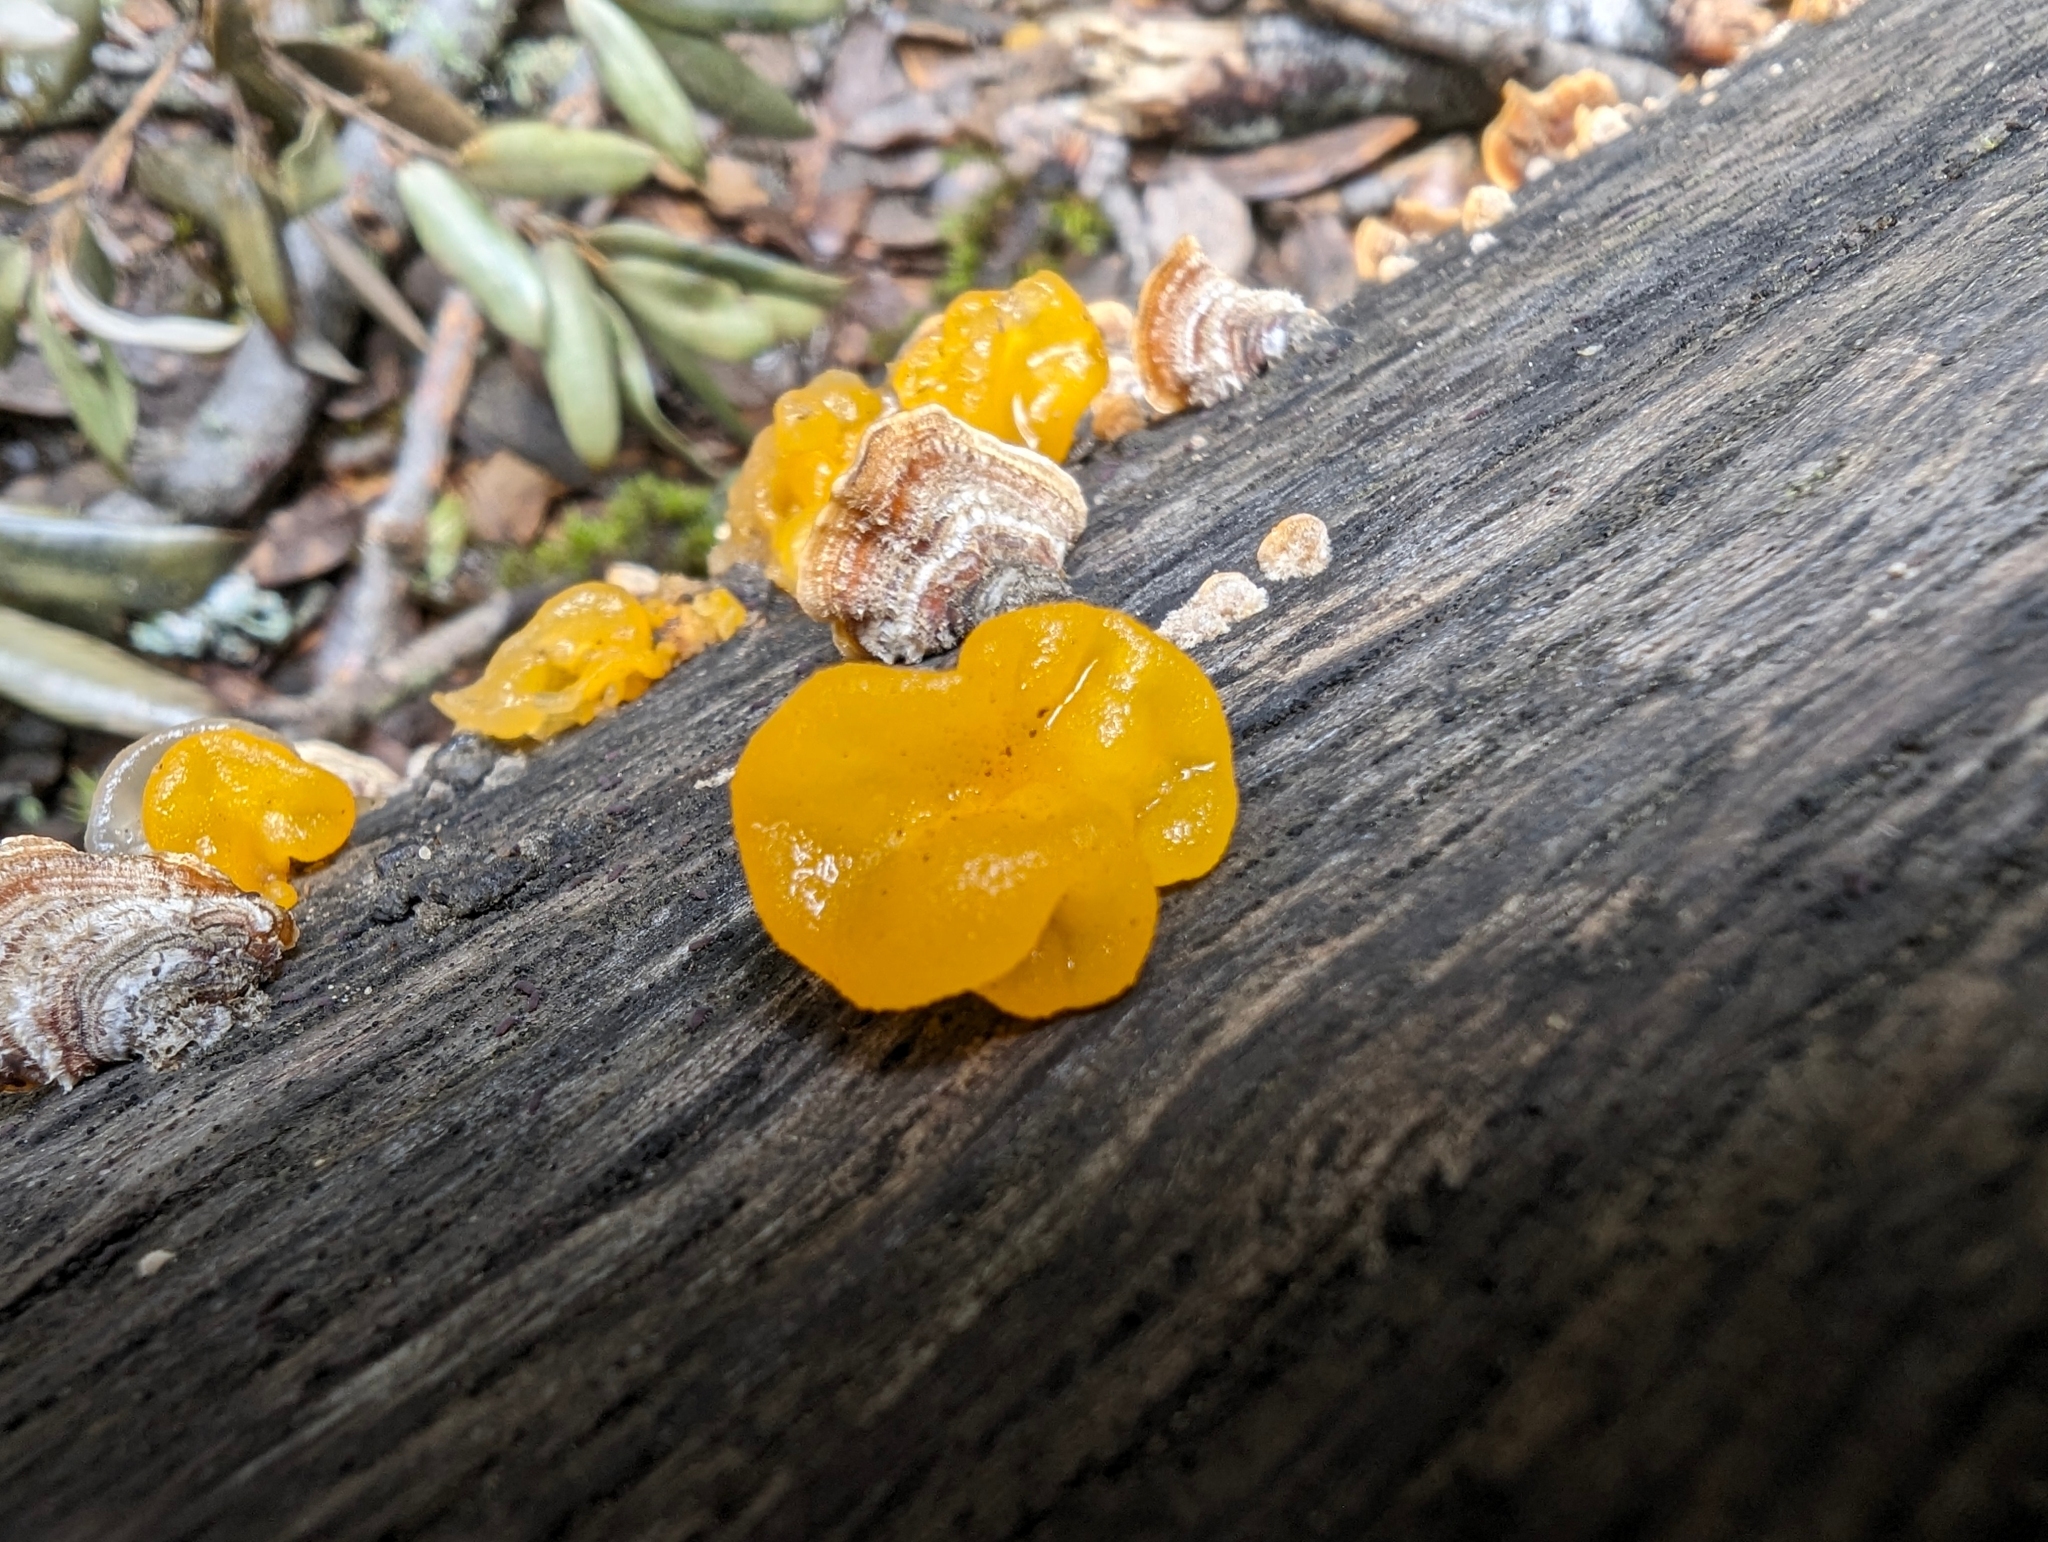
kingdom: Fungi
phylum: Basidiomycota
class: Tremellomycetes
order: Tremellales
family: Naemateliaceae
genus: Naematelia
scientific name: Naematelia aurantia
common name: Golden ear
